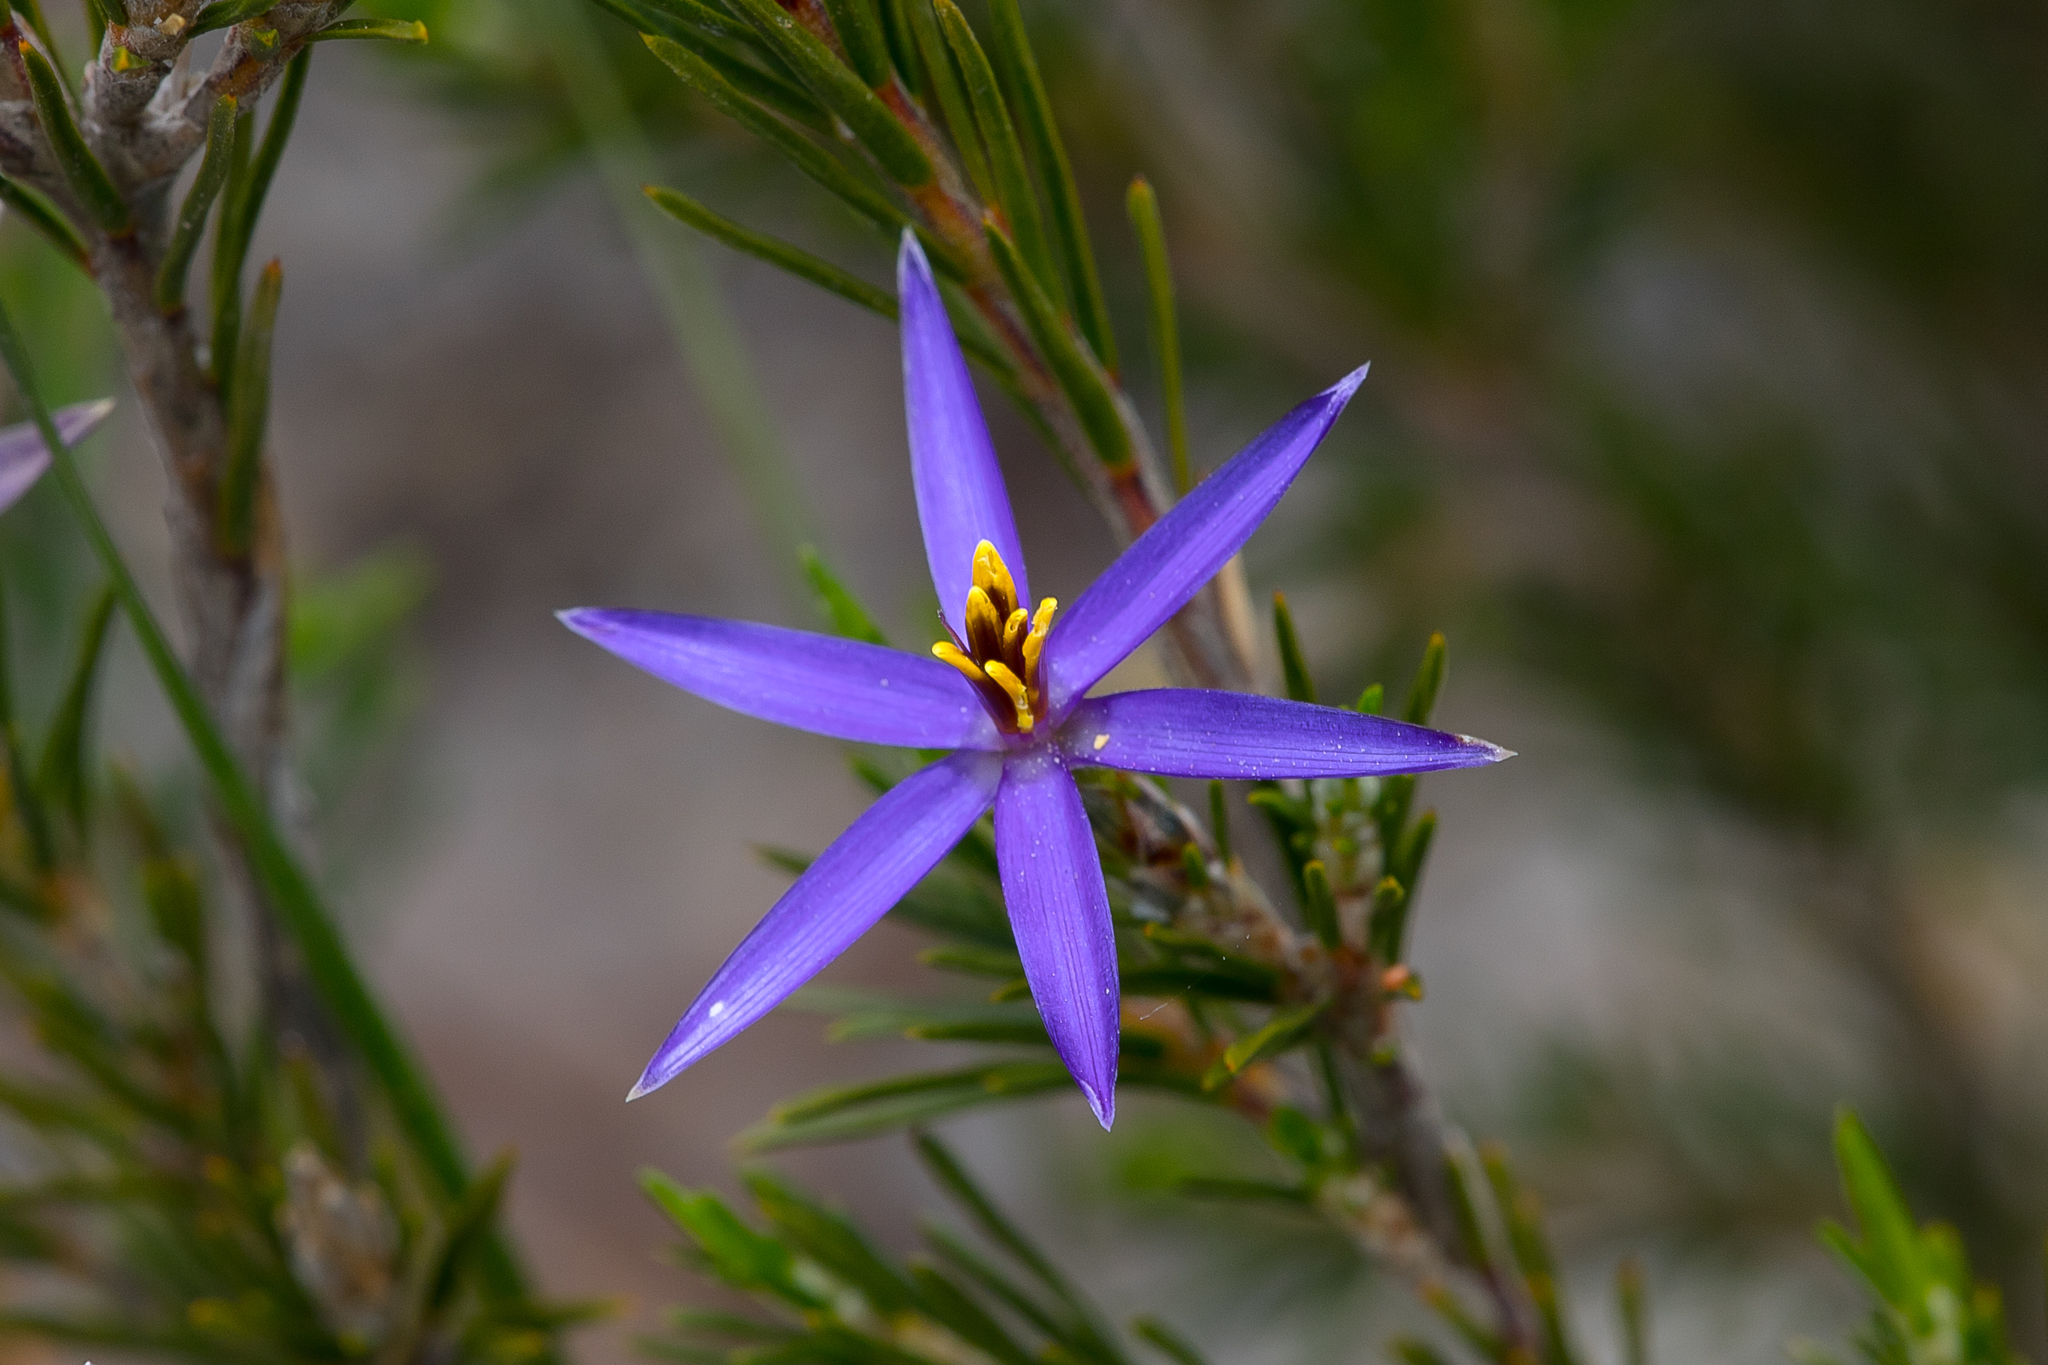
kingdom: Plantae
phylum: Tracheophyta
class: Liliopsida
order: Arecales
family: Dasypogonaceae
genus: Calectasia
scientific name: Calectasia intermedia
